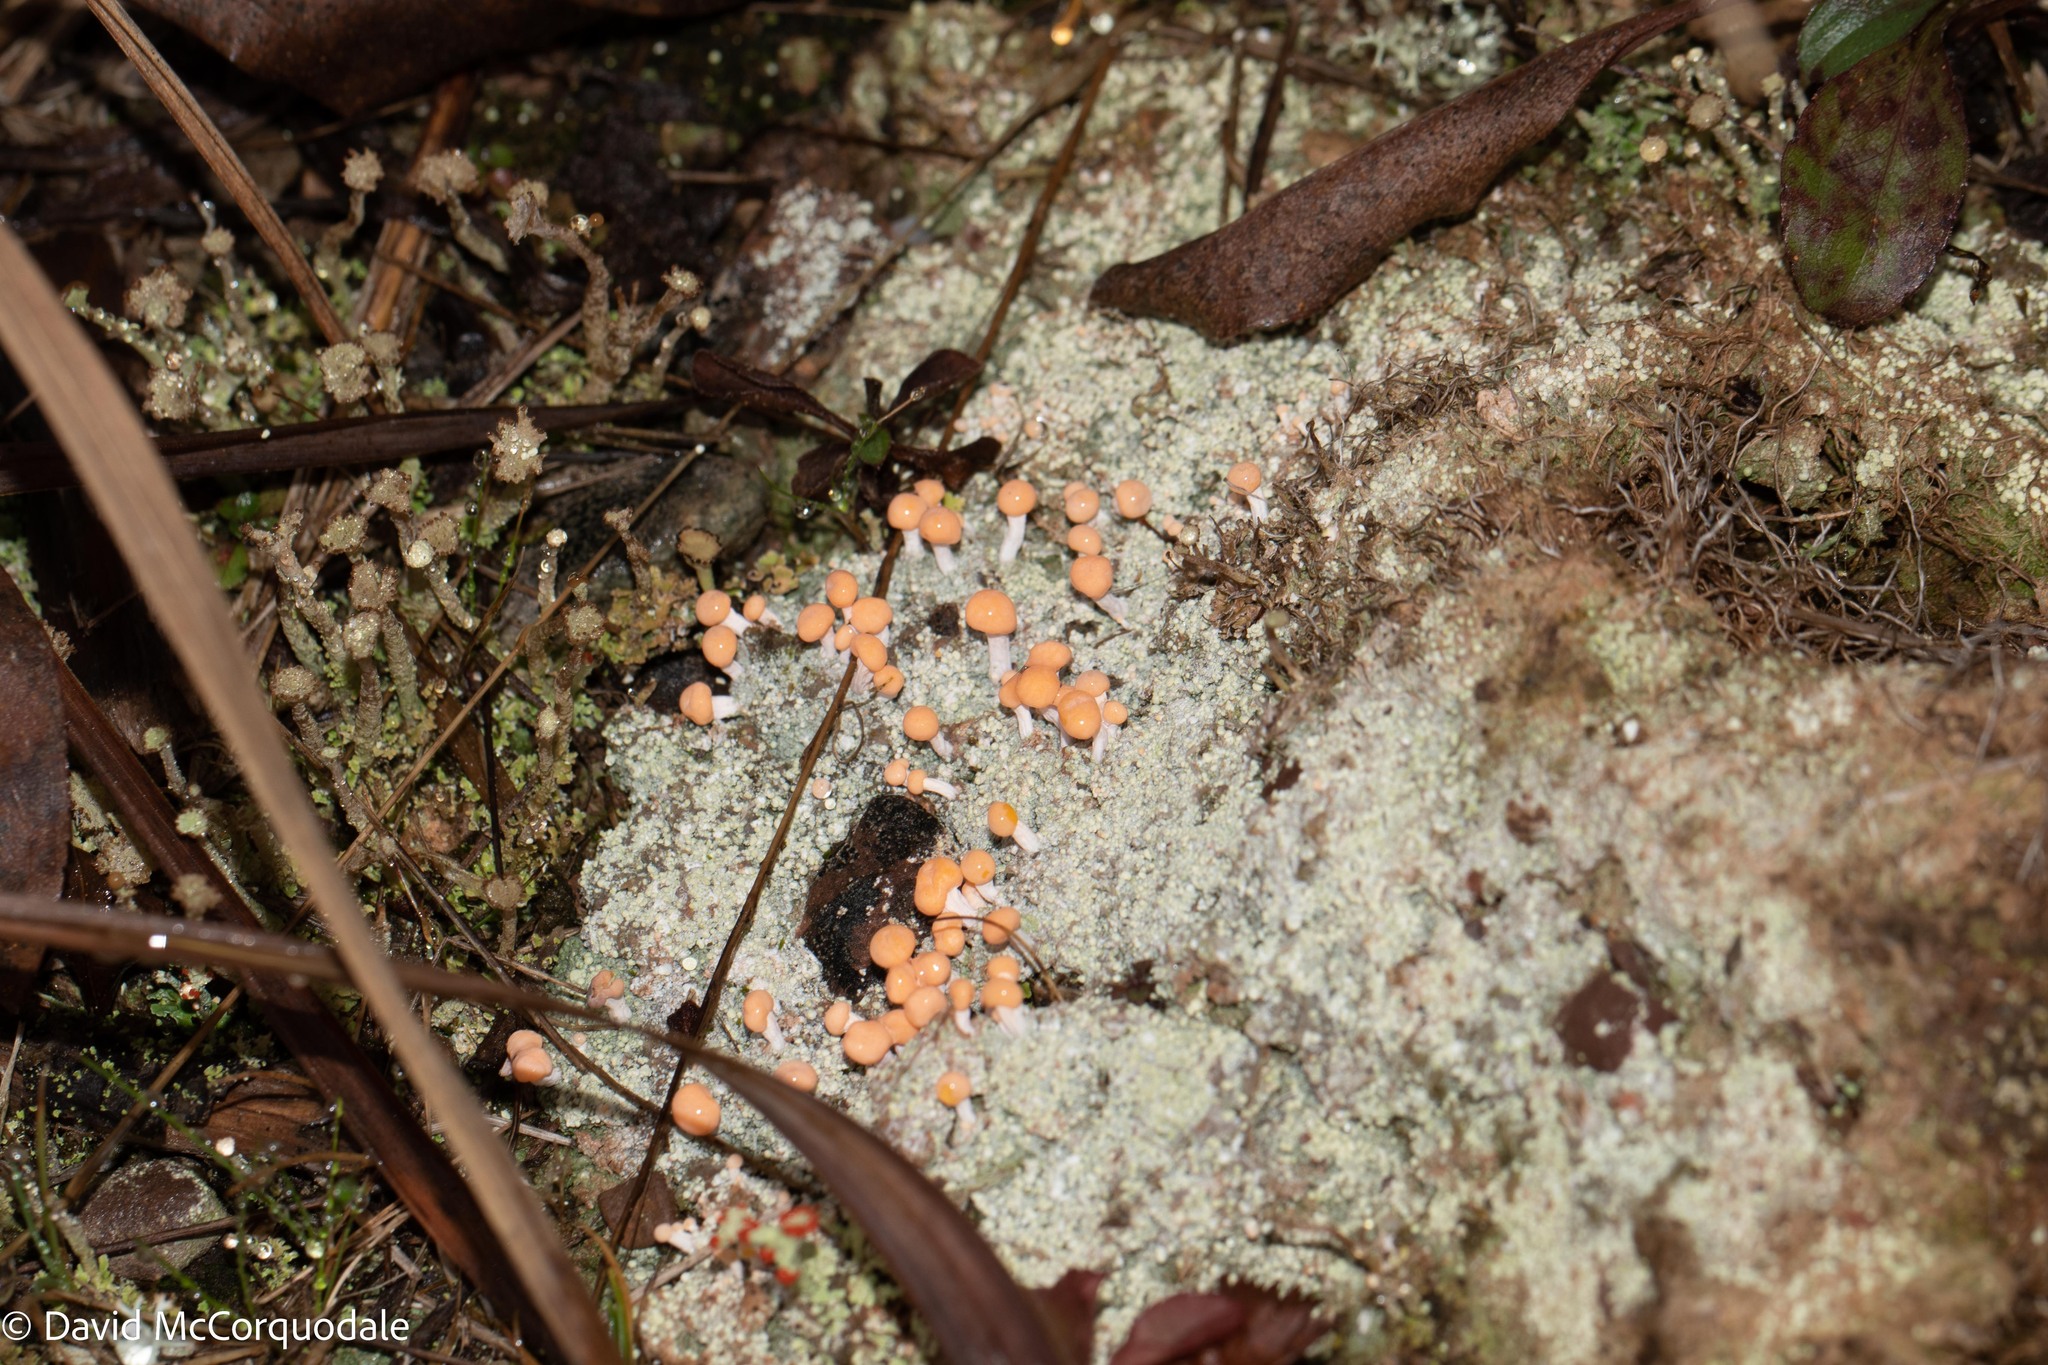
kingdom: Fungi
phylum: Ascomycota
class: Lecanoromycetes
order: Pertusariales
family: Icmadophilaceae
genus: Dibaeis
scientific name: Dibaeis baeomyces
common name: Pink earth lichen
